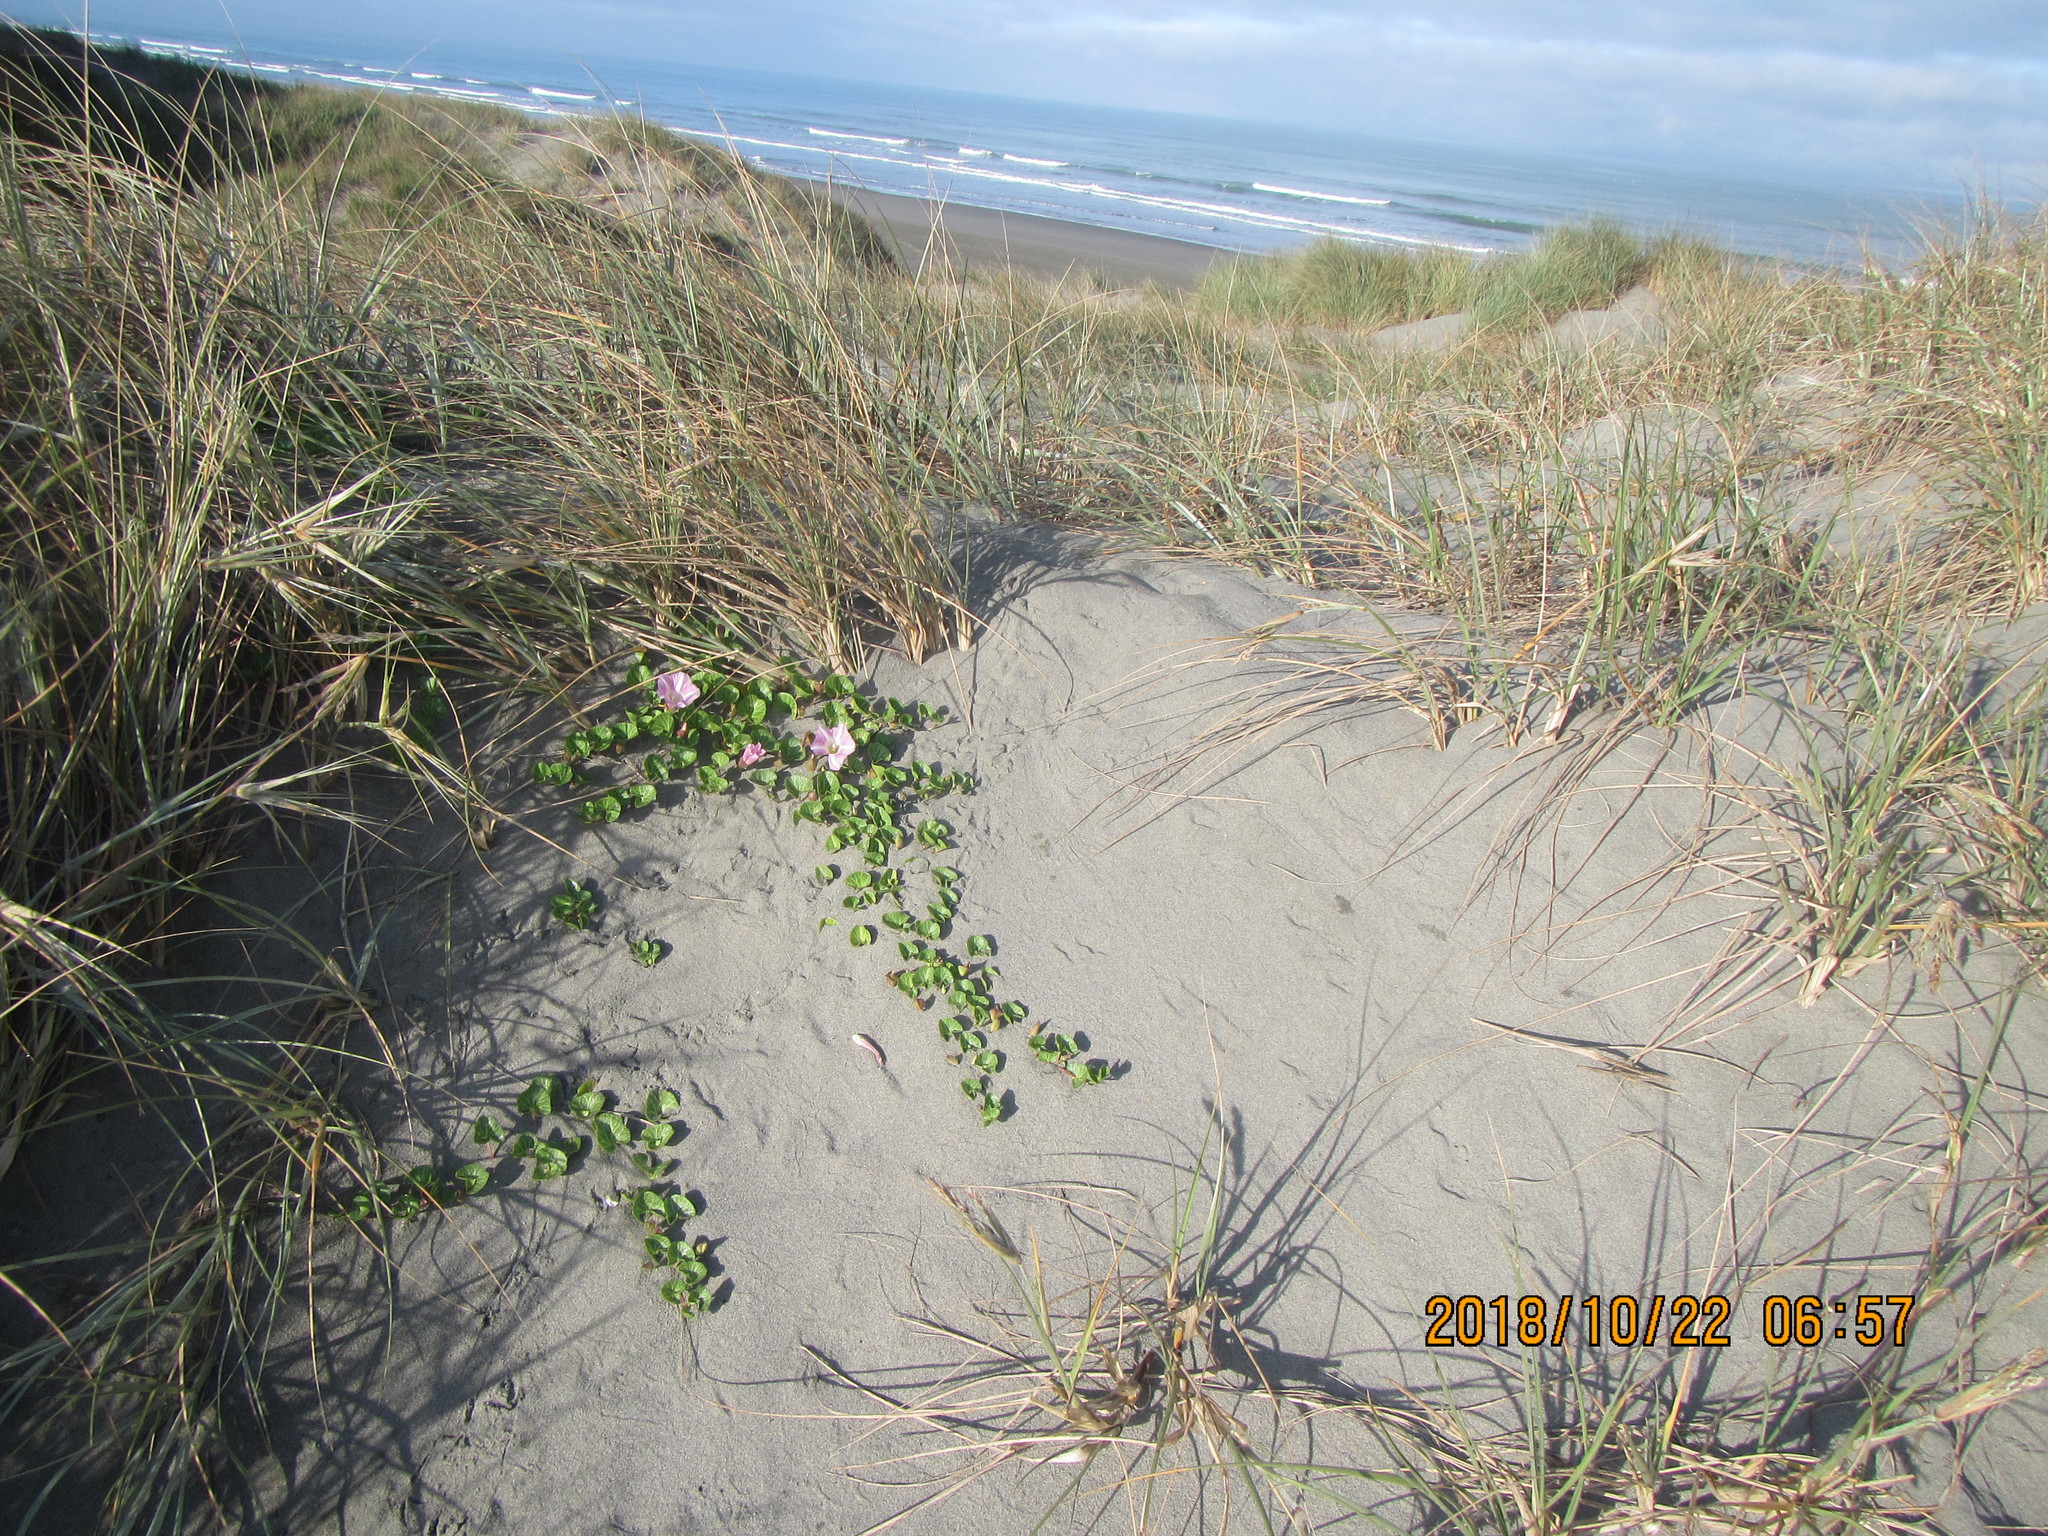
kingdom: Plantae
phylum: Tracheophyta
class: Magnoliopsida
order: Solanales
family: Convolvulaceae
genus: Calystegia
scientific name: Calystegia soldanella
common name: Sea bindweed
